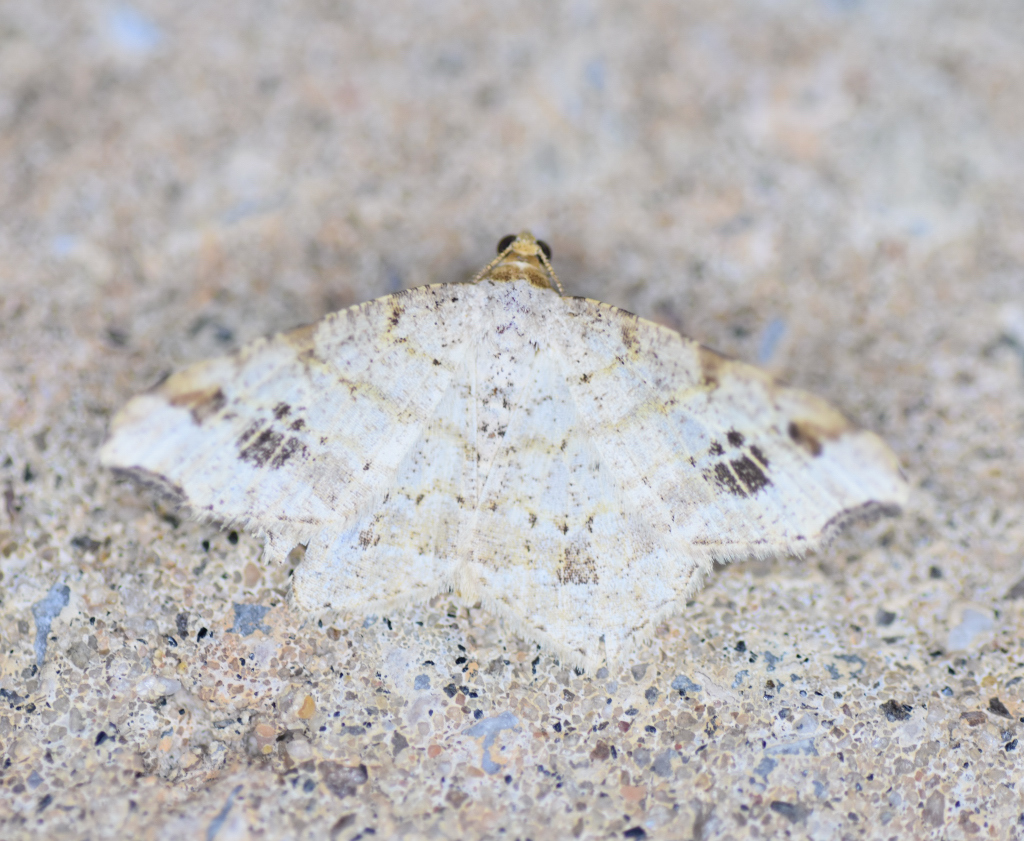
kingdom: Animalia
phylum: Arthropoda
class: Insecta
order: Lepidoptera
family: Geometridae
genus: Macaria
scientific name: Macaria aemulataria
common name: Common angle
